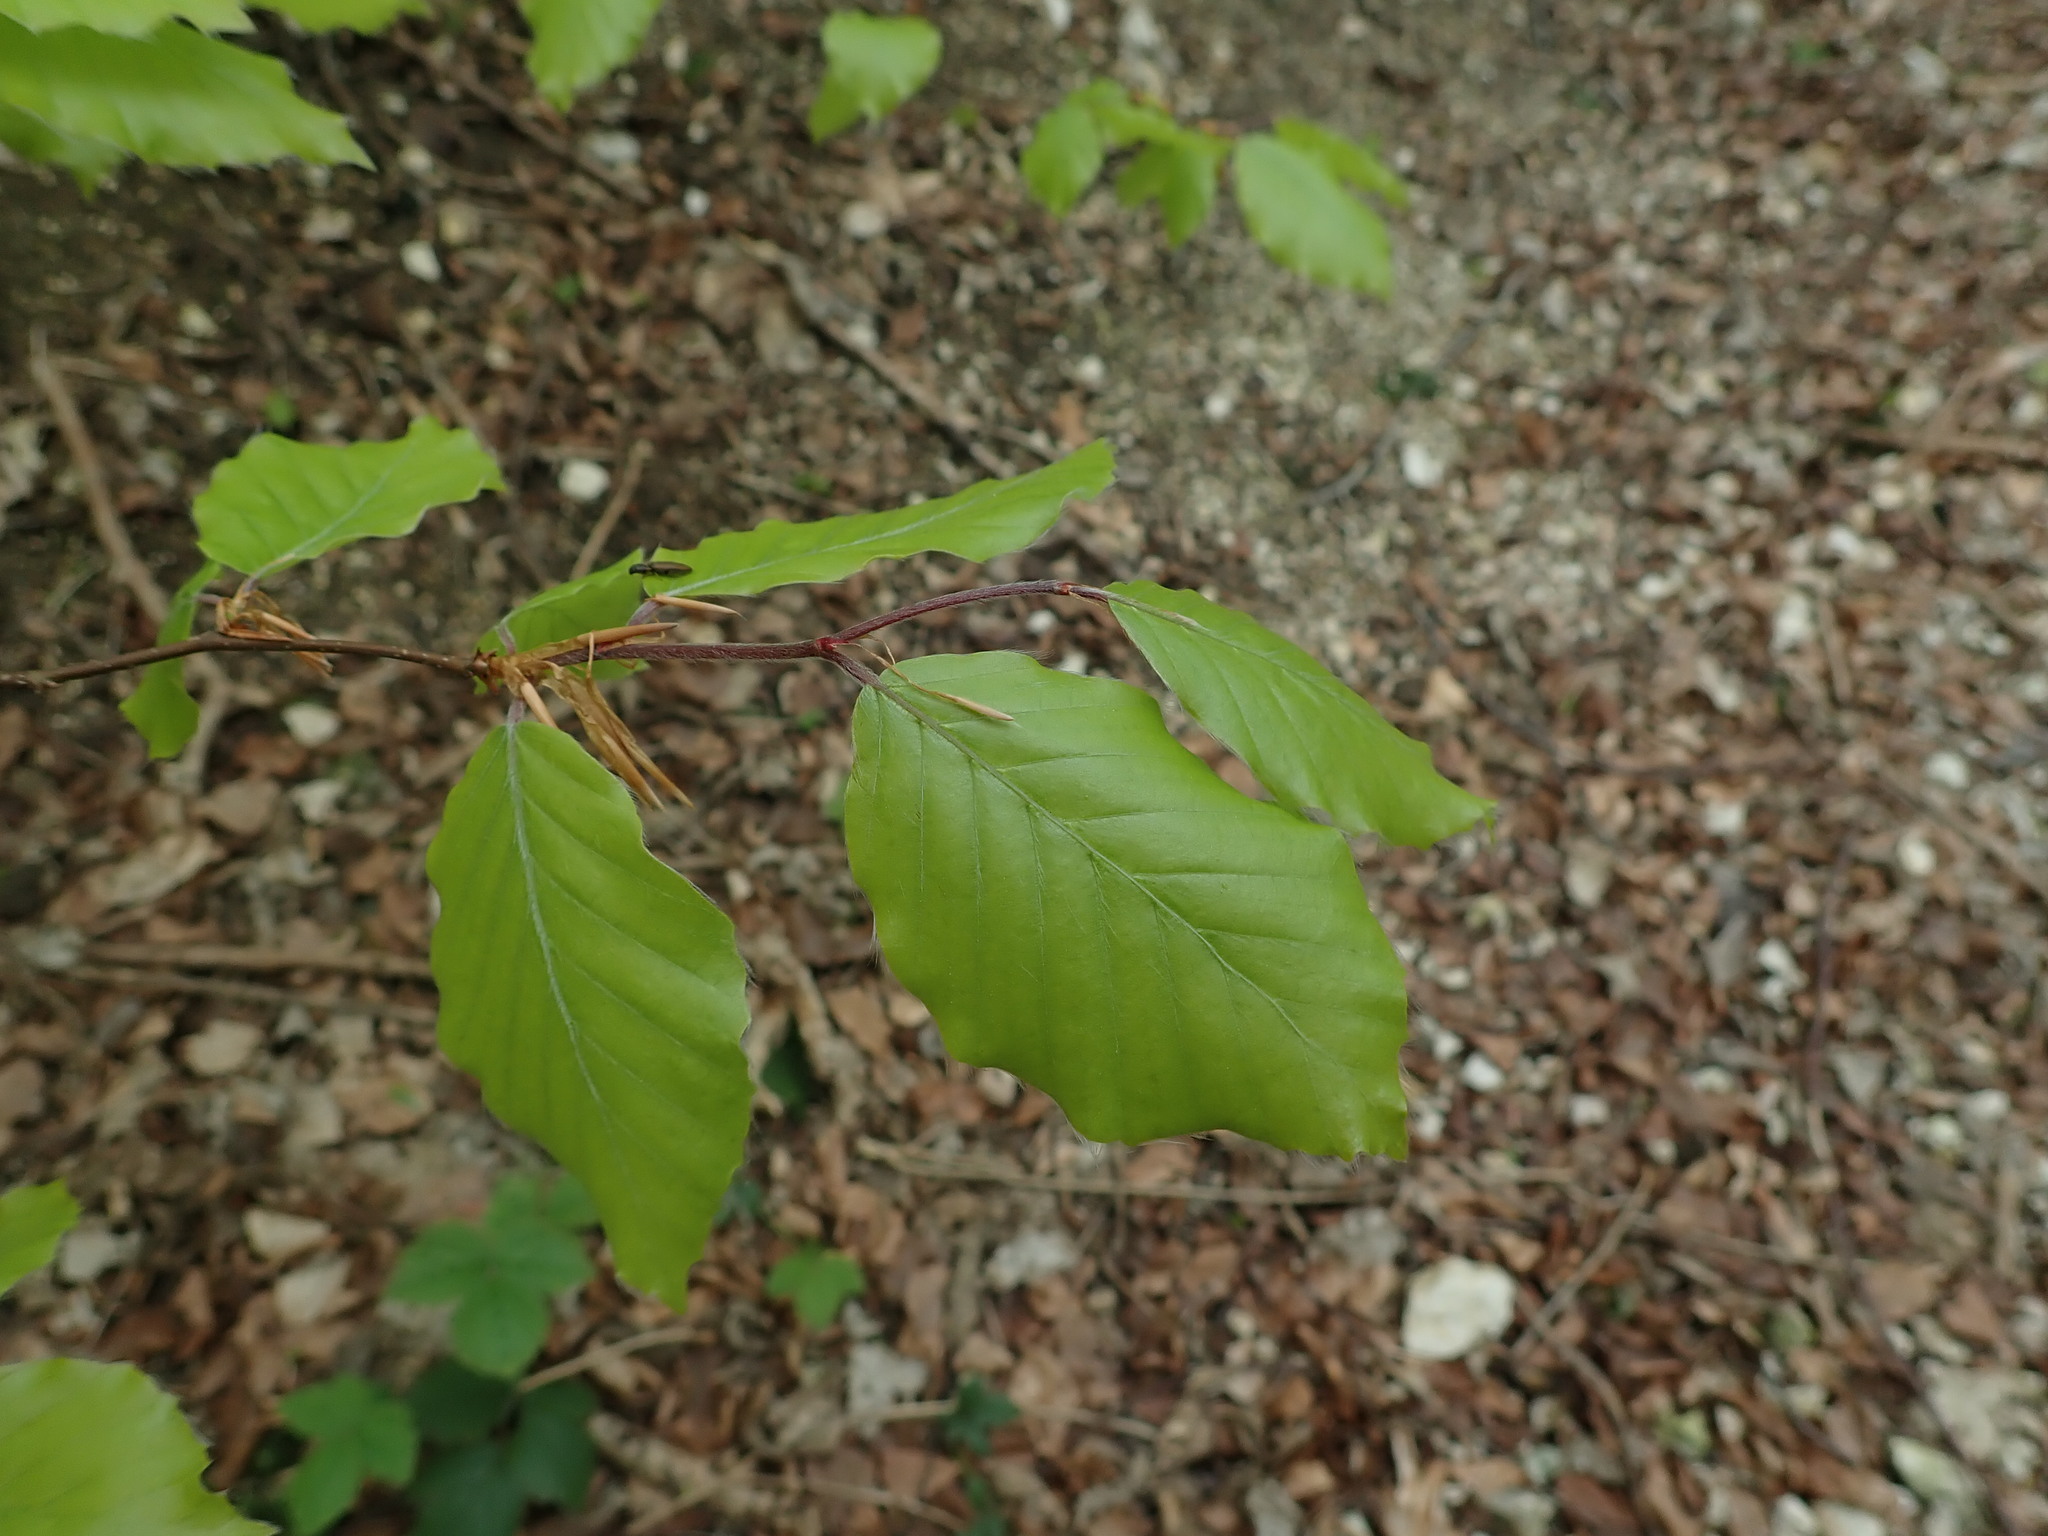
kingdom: Plantae
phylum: Tracheophyta
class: Magnoliopsida
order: Fagales
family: Fagaceae
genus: Fagus
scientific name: Fagus sylvatica
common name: Beech
